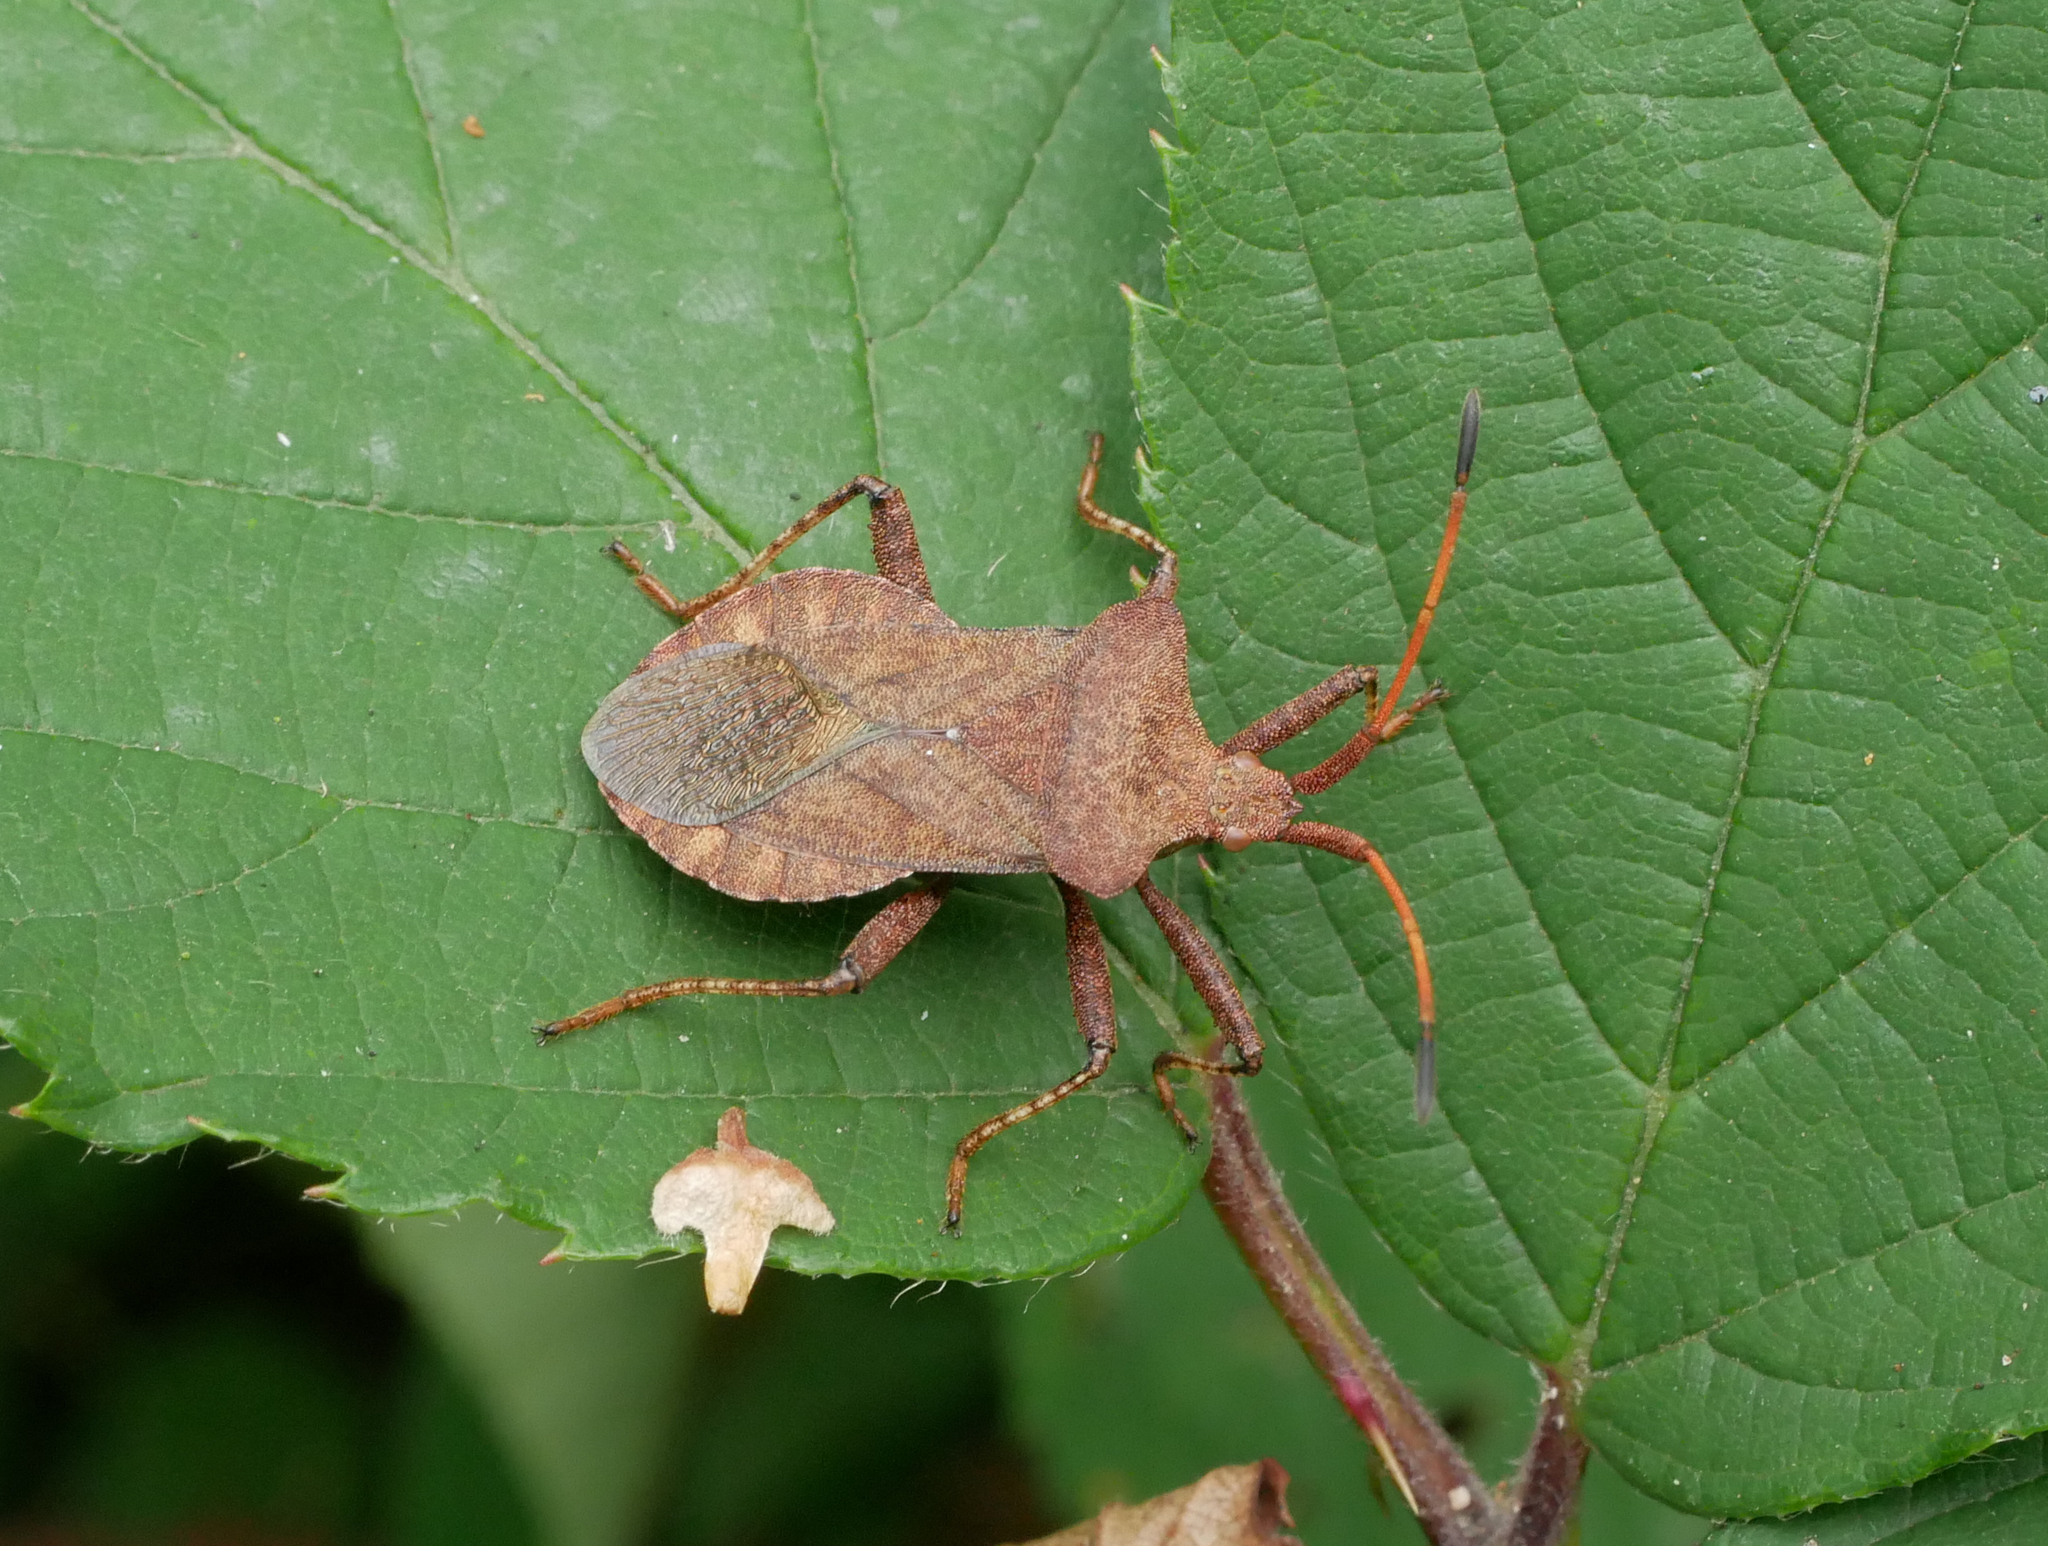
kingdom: Animalia
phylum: Arthropoda
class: Insecta
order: Hemiptera
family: Coreidae
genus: Coreus
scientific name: Coreus marginatus
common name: Dock bug
